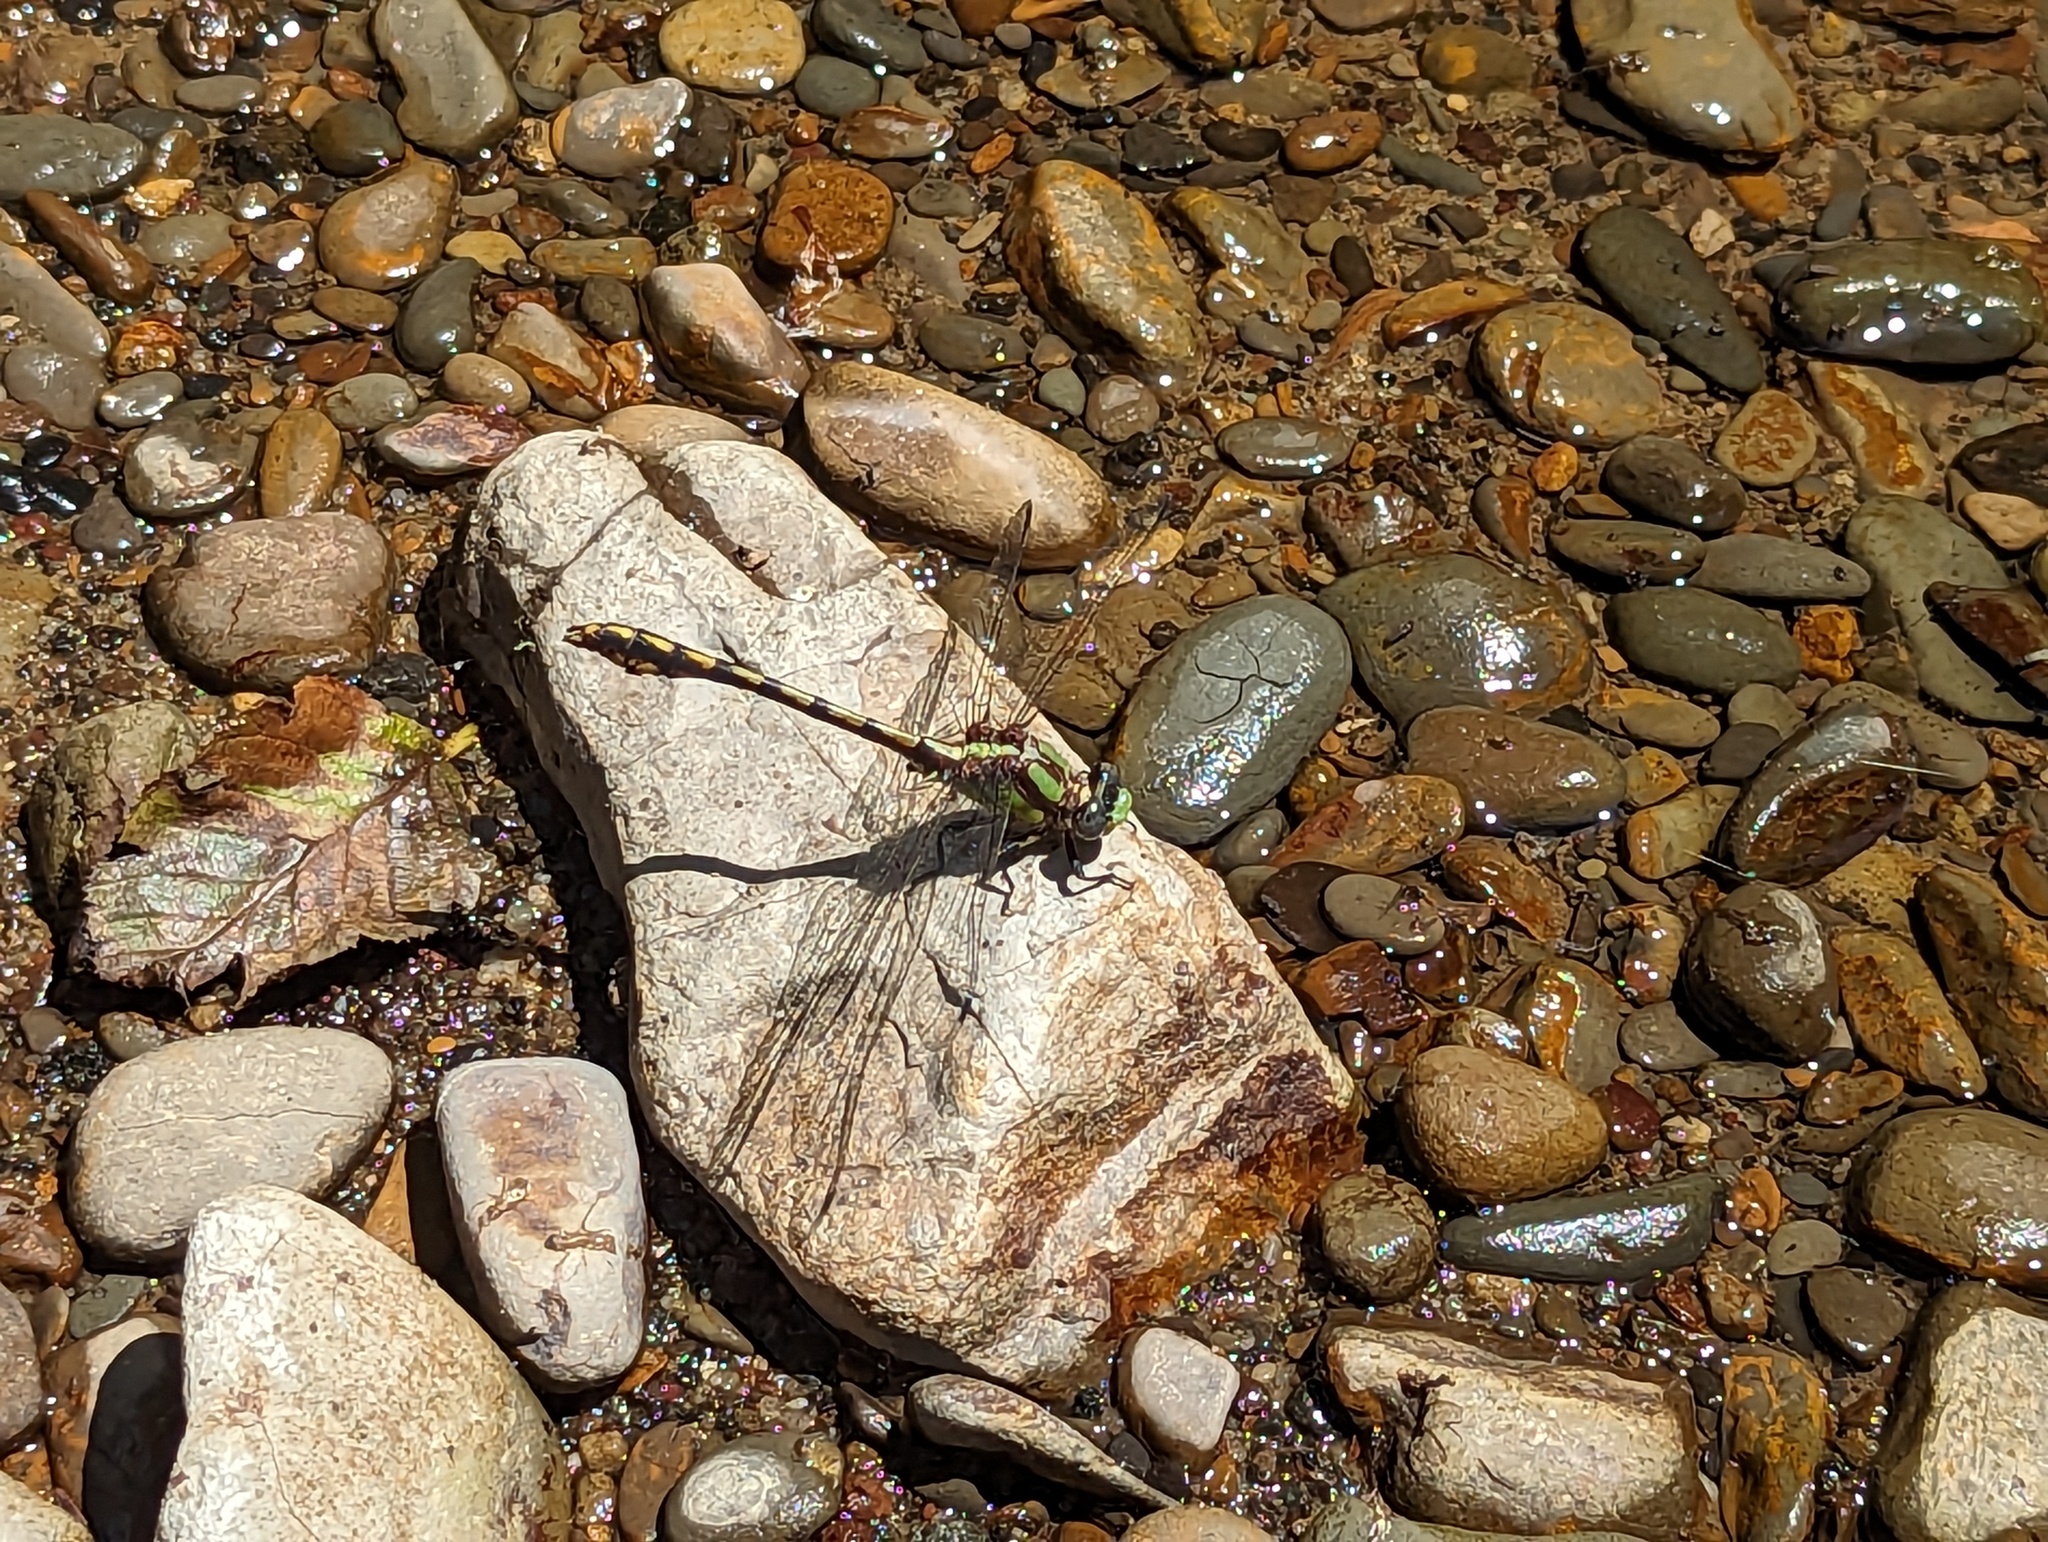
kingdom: Animalia
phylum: Arthropoda
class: Insecta
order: Odonata
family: Gomphidae
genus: Ophiogomphus
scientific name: Ophiogomphus bison
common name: Bison snaketail
